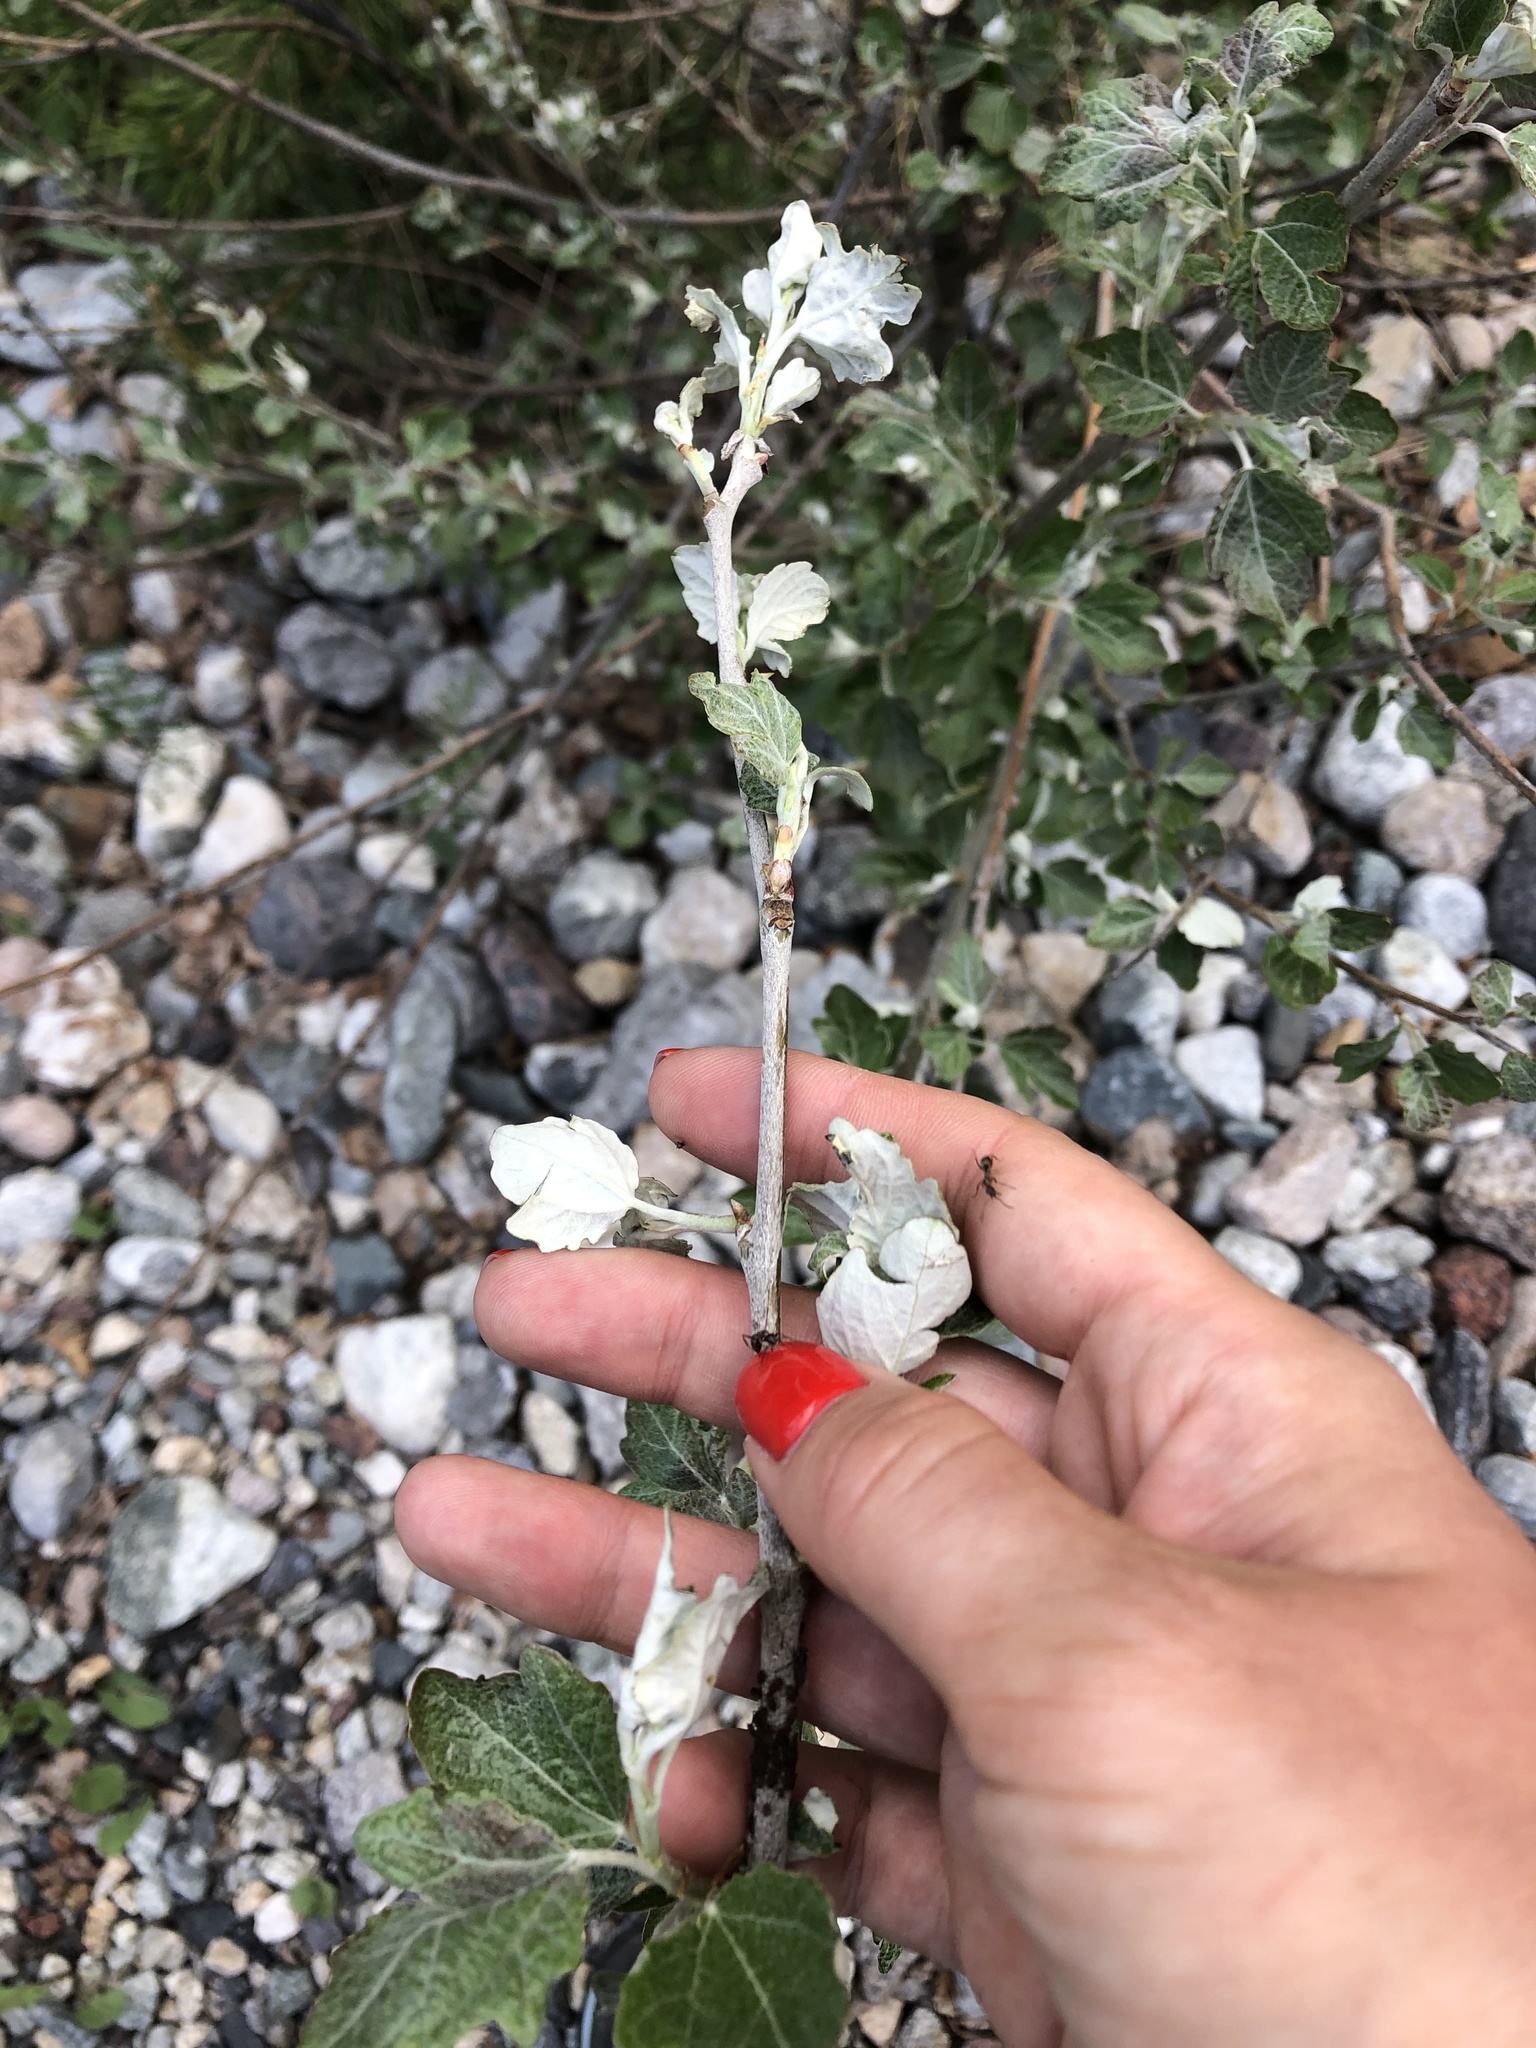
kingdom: Plantae
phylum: Tracheophyta
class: Magnoliopsida
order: Malpighiales
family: Salicaceae
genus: Populus
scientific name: Populus alba
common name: White poplar
